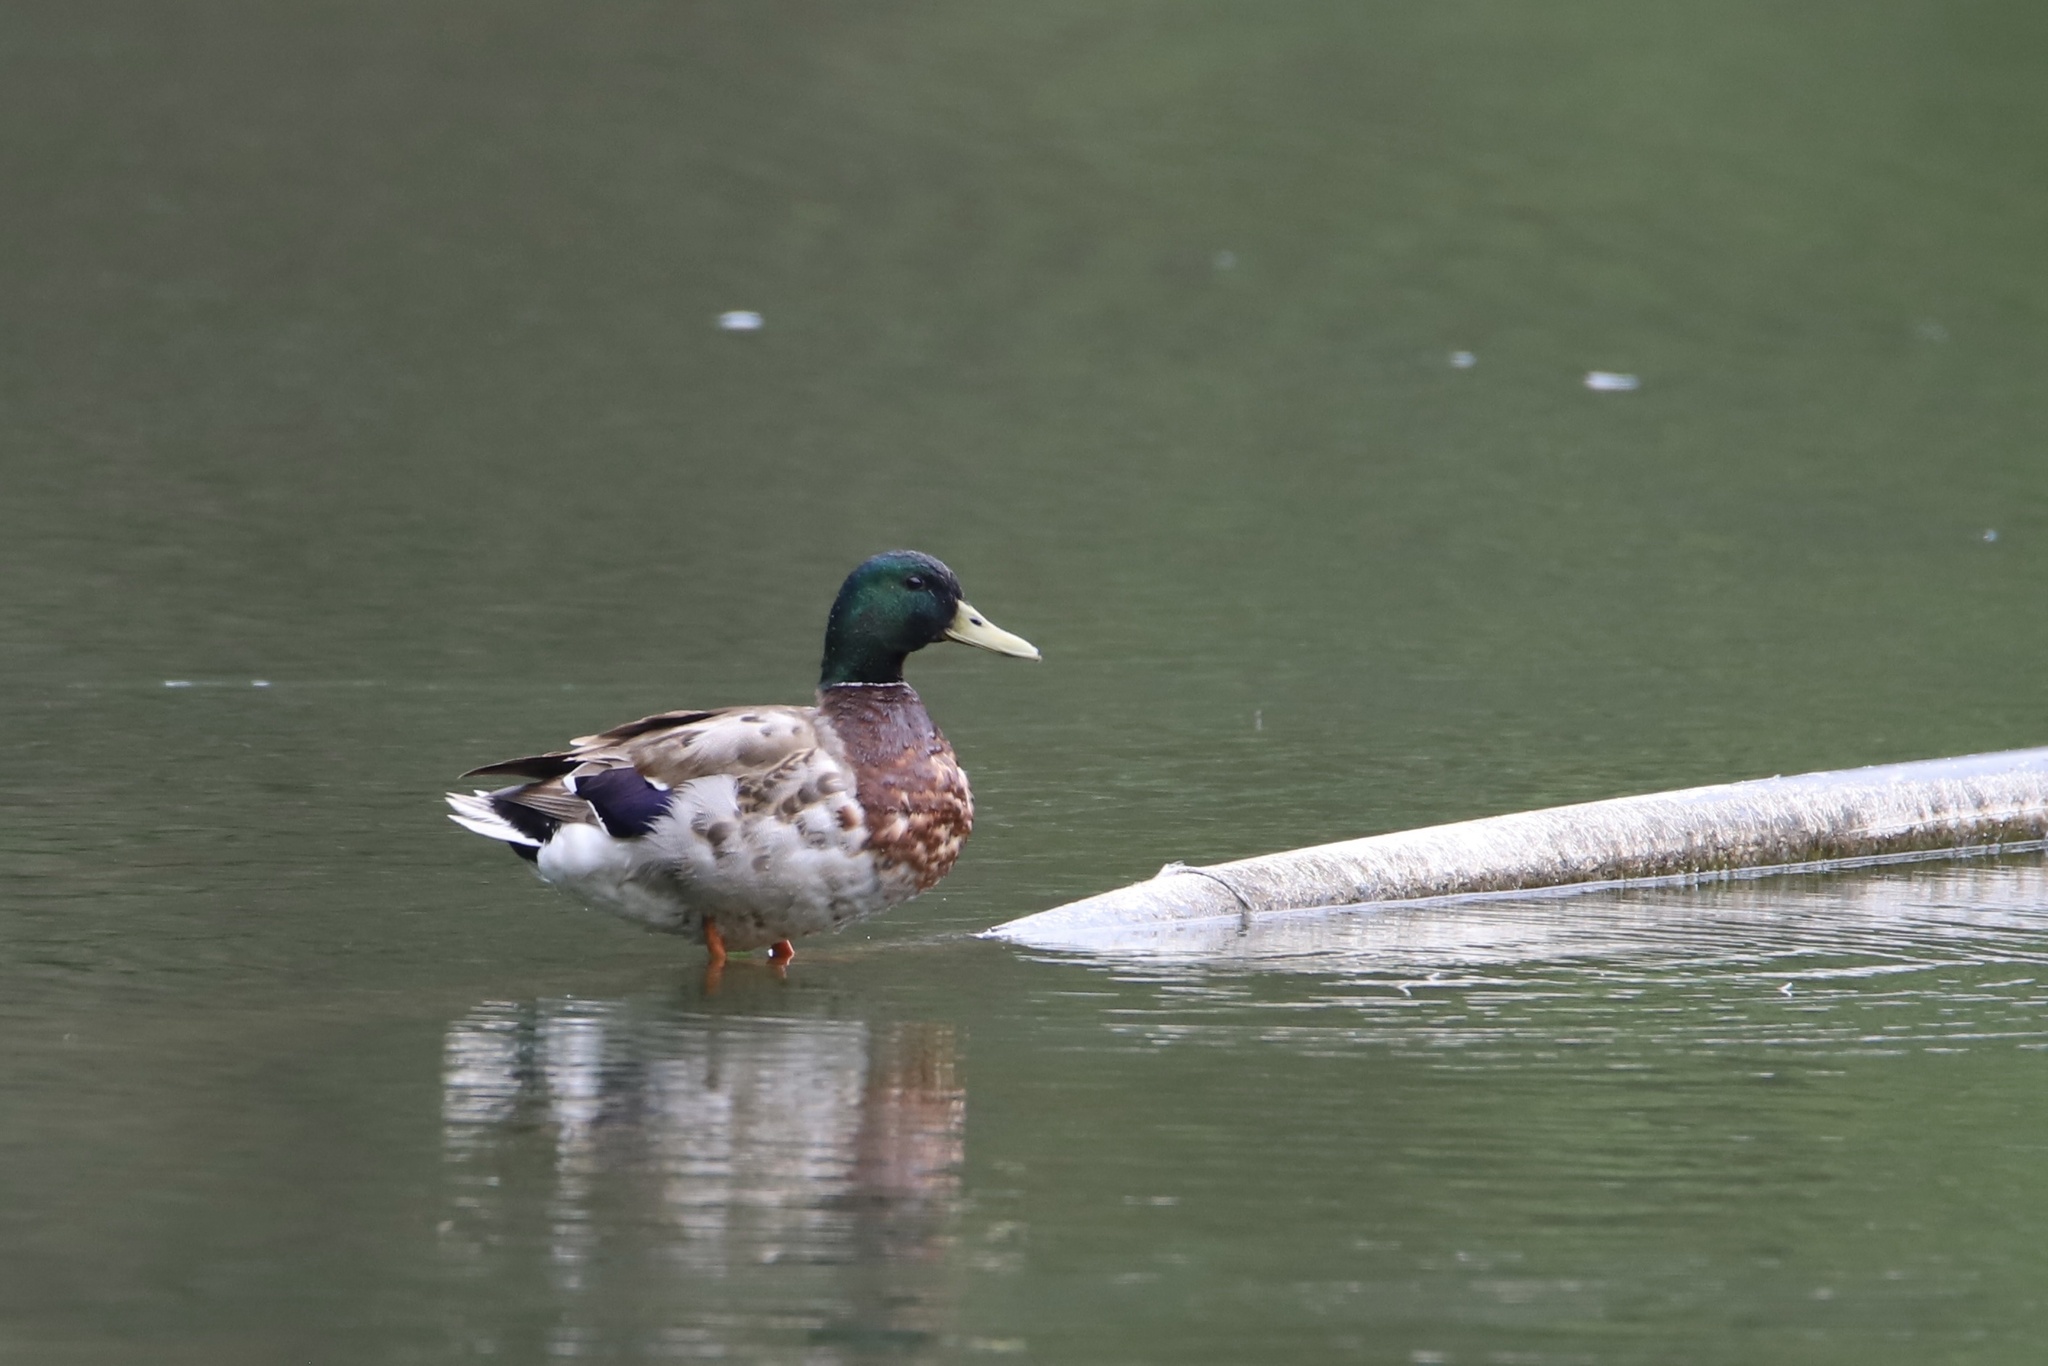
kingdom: Animalia
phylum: Chordata
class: Aves
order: Anseriformes
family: Anatidae
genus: Anas
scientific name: Anas platyrhynchos
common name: Mallard
